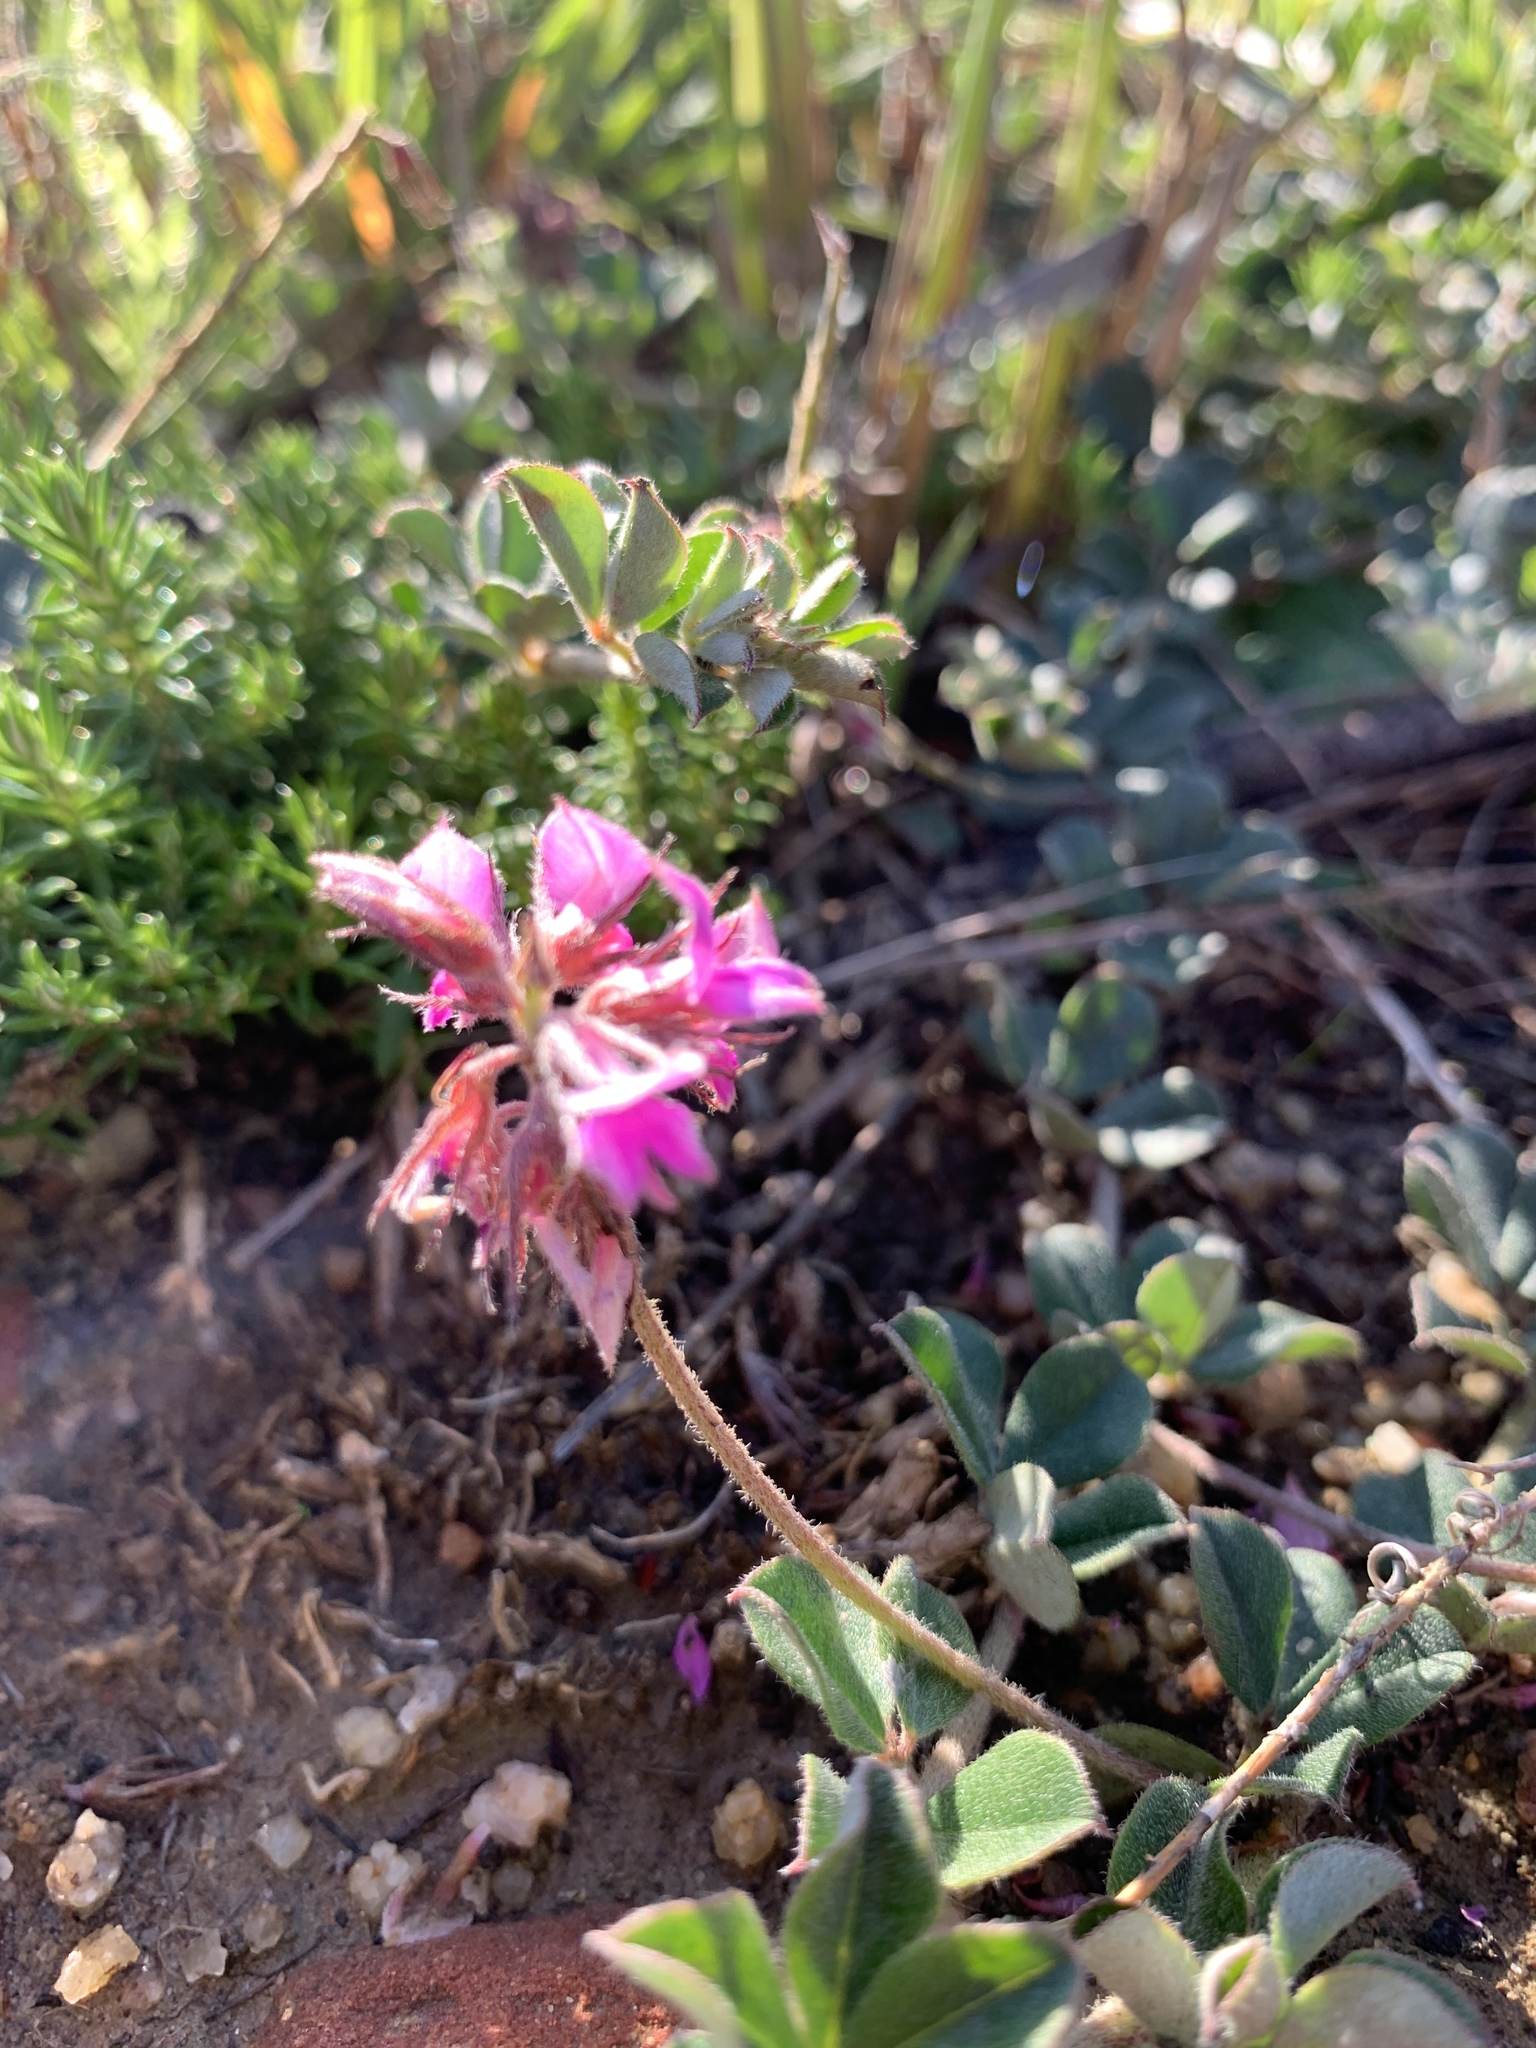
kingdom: Plantae
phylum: Tracheophyta
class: Magnoliopsida
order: Fabales
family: Fabaceae
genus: Indigofera
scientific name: Indigofera mauritanica
